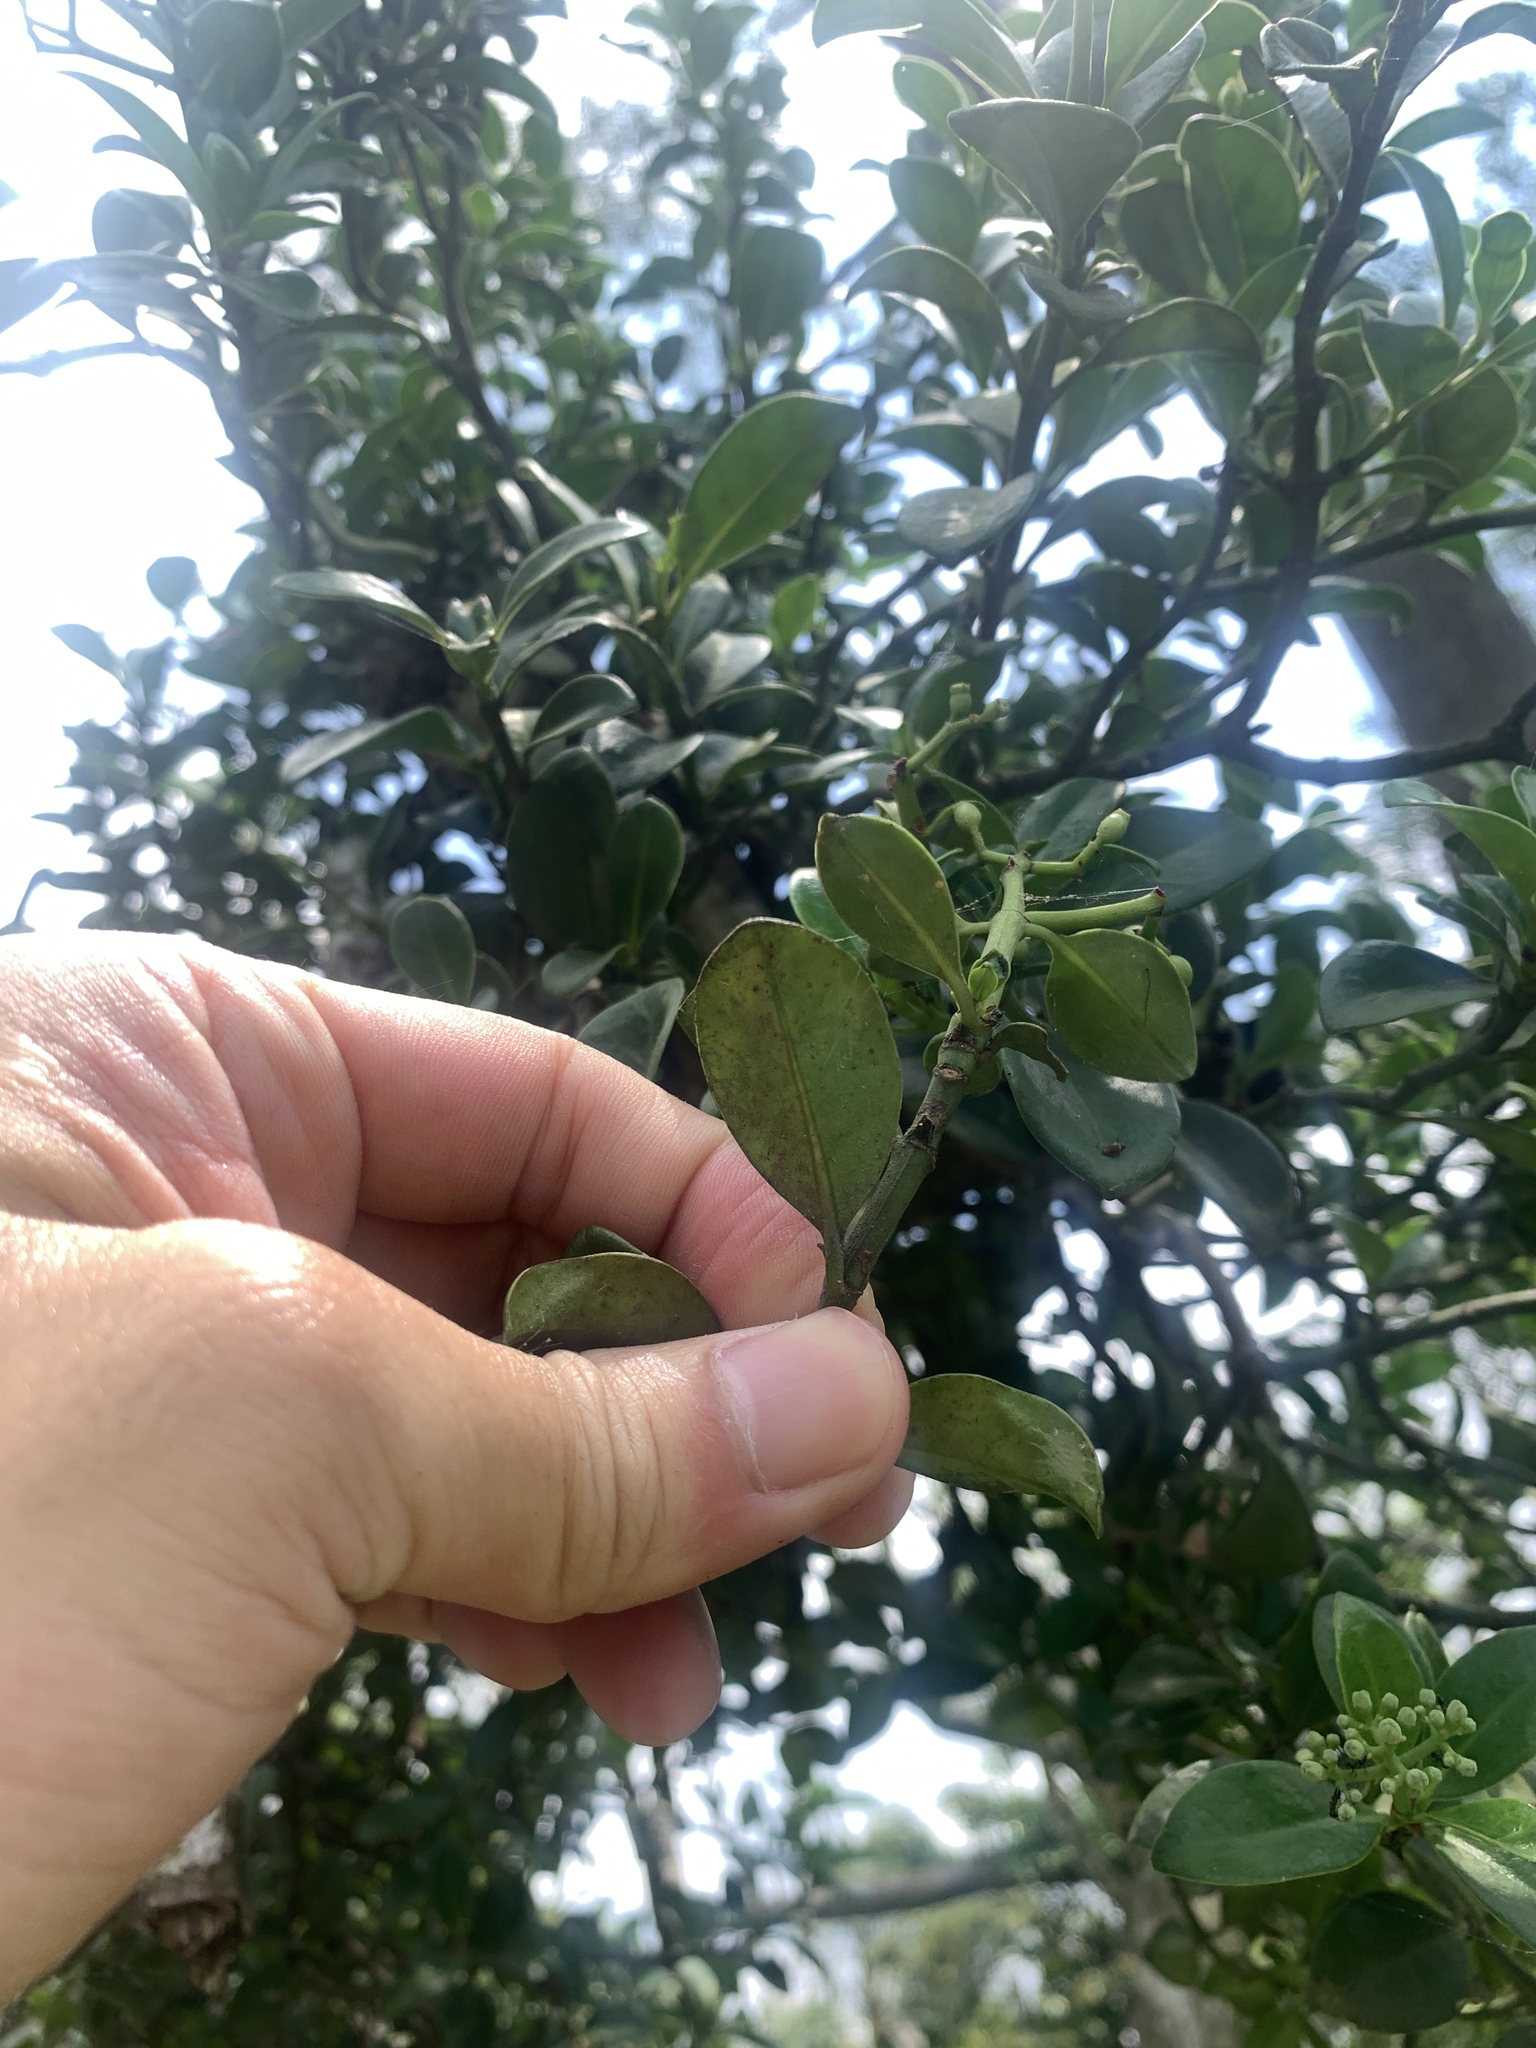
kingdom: Plantae
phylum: Tracheophyta
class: Magnoliopsida
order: Gentianales
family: Rubiaceae
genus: Psychotria
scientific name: Psychotria serpens
